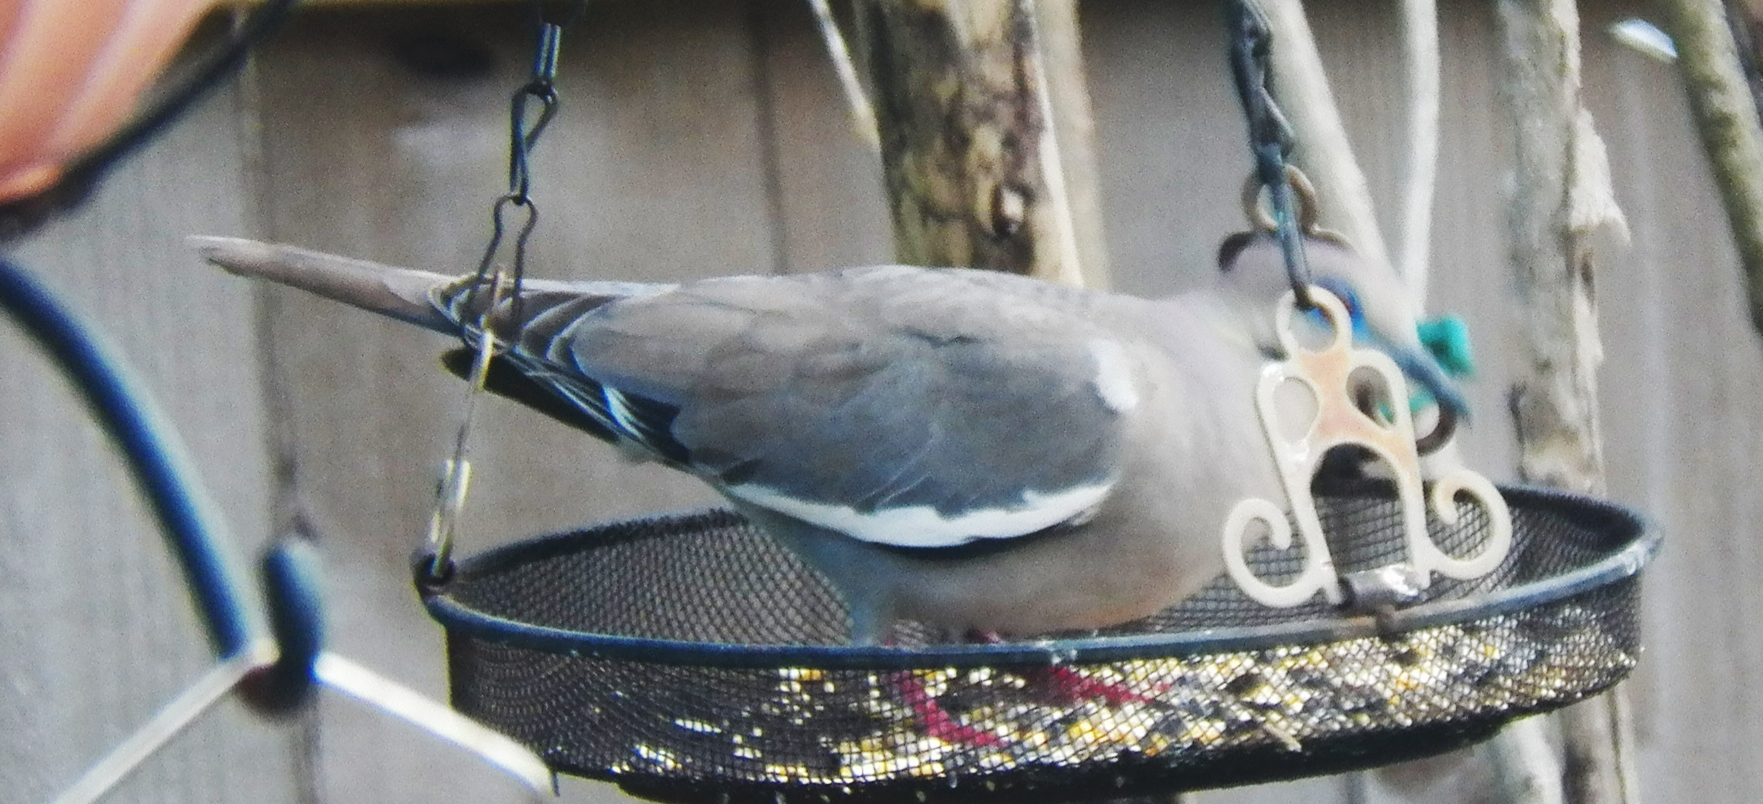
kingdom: Animalia
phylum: Chordata
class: Aves
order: Columbiformes
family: Columbidae
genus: Zenaida
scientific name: Zenaida asiatica
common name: White-winged dove
